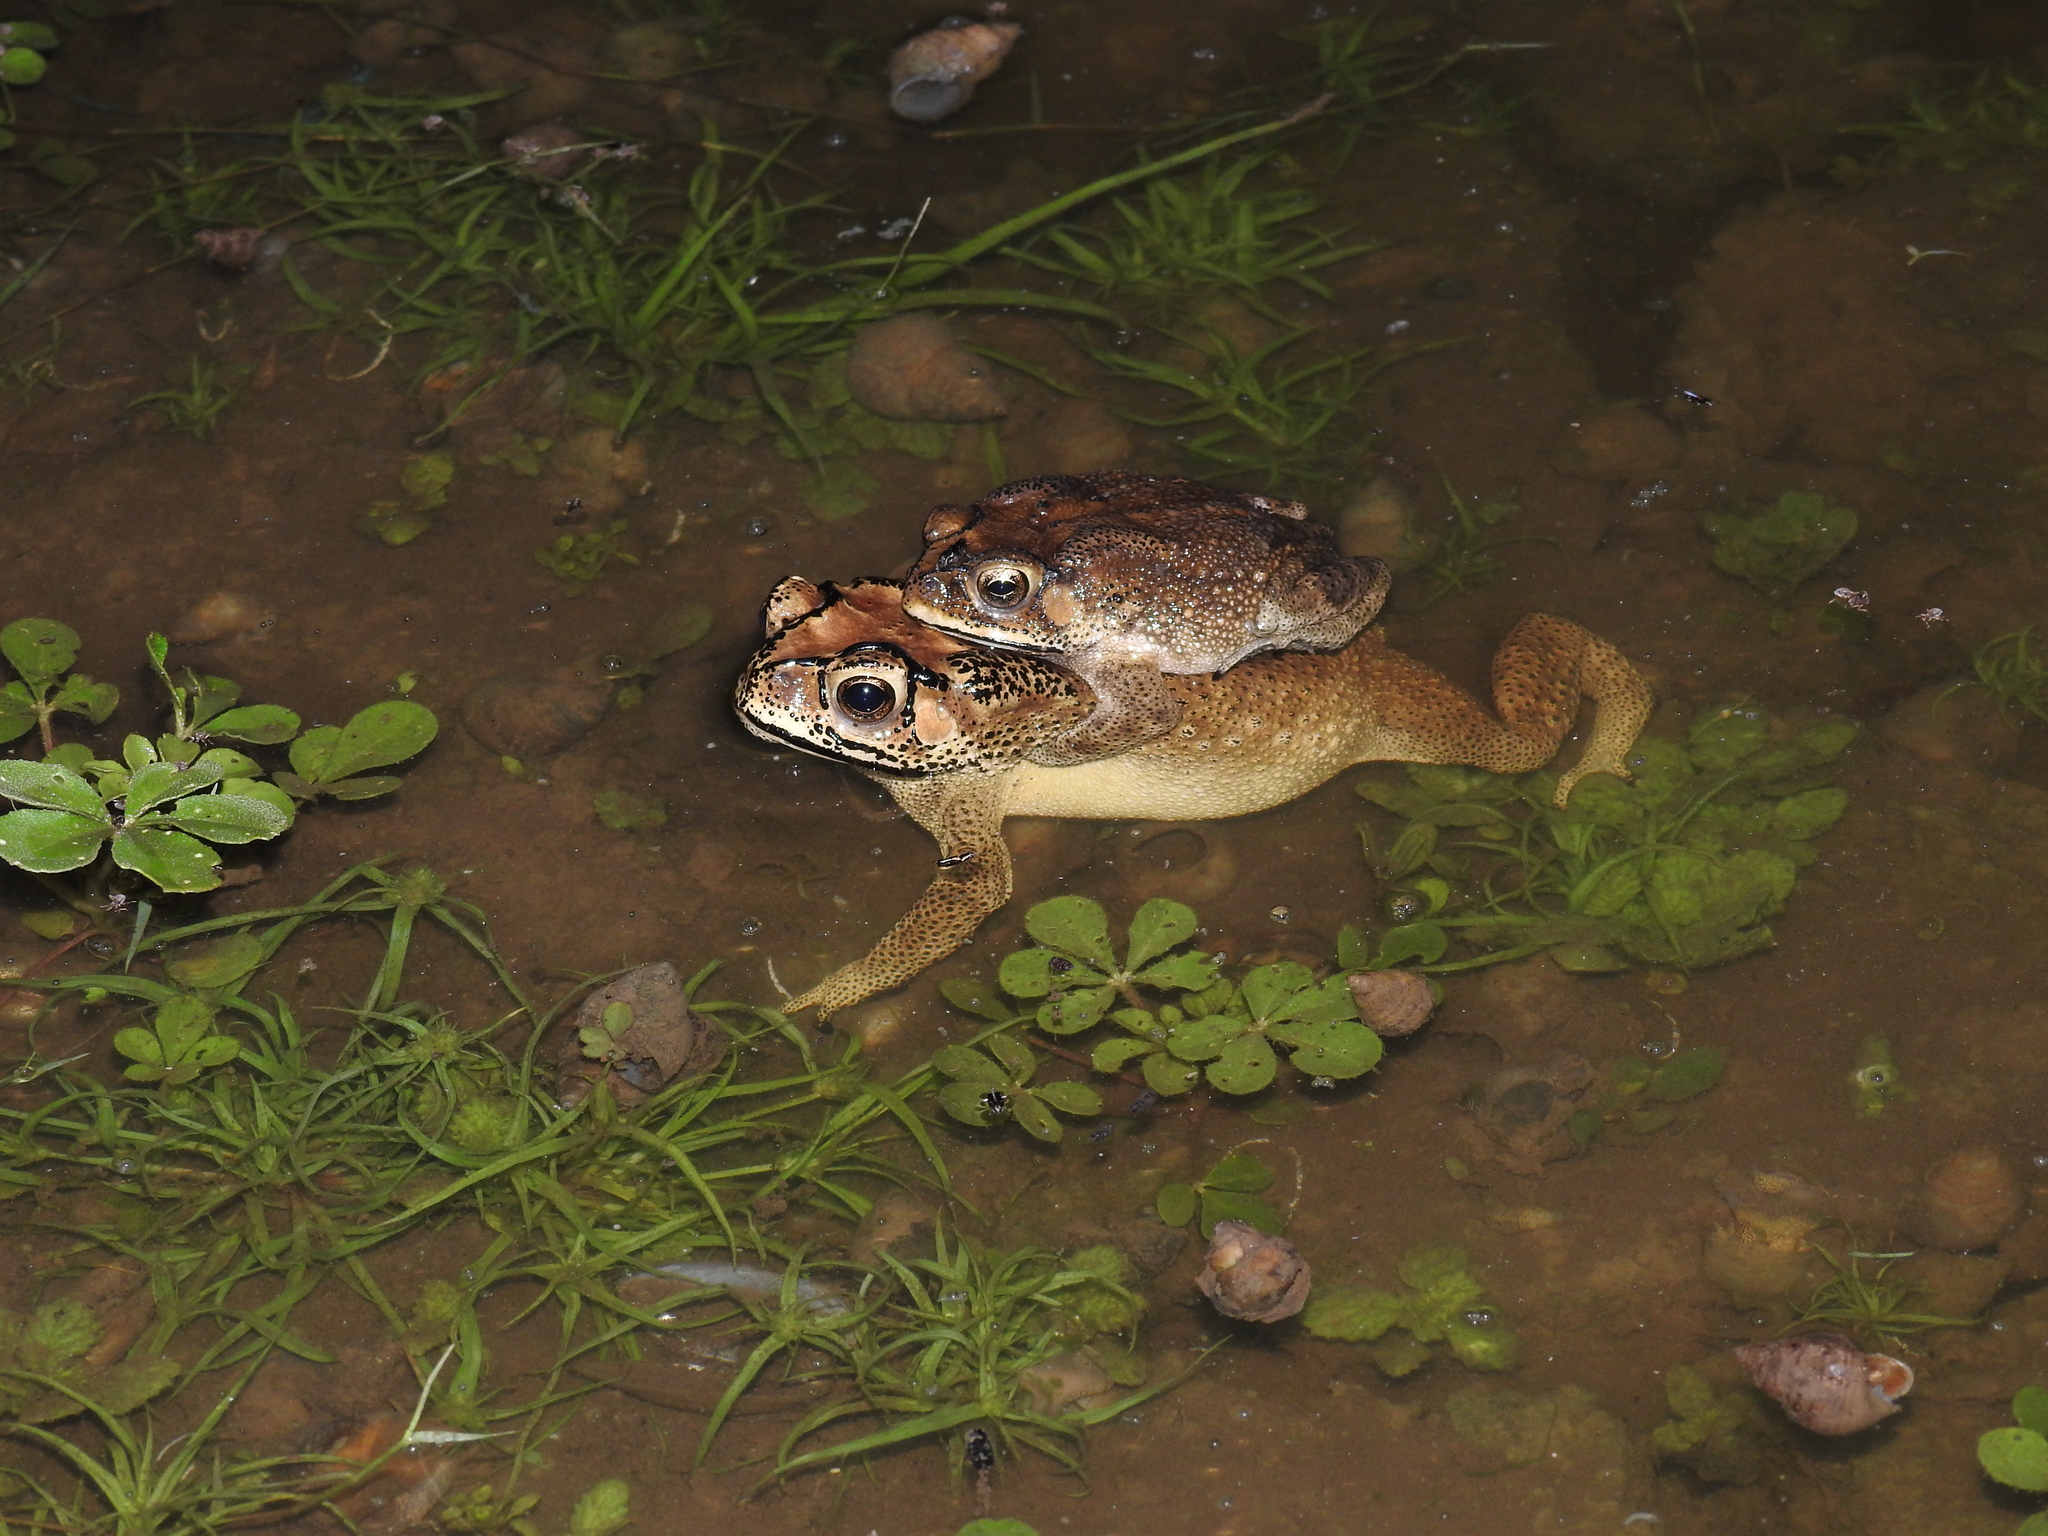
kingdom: Animalia
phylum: Chordata
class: Amphibia
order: Anura
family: Bufonidae
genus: Duttaphrynus
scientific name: Duttaphrynus melanostictus
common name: Common sunda toad
